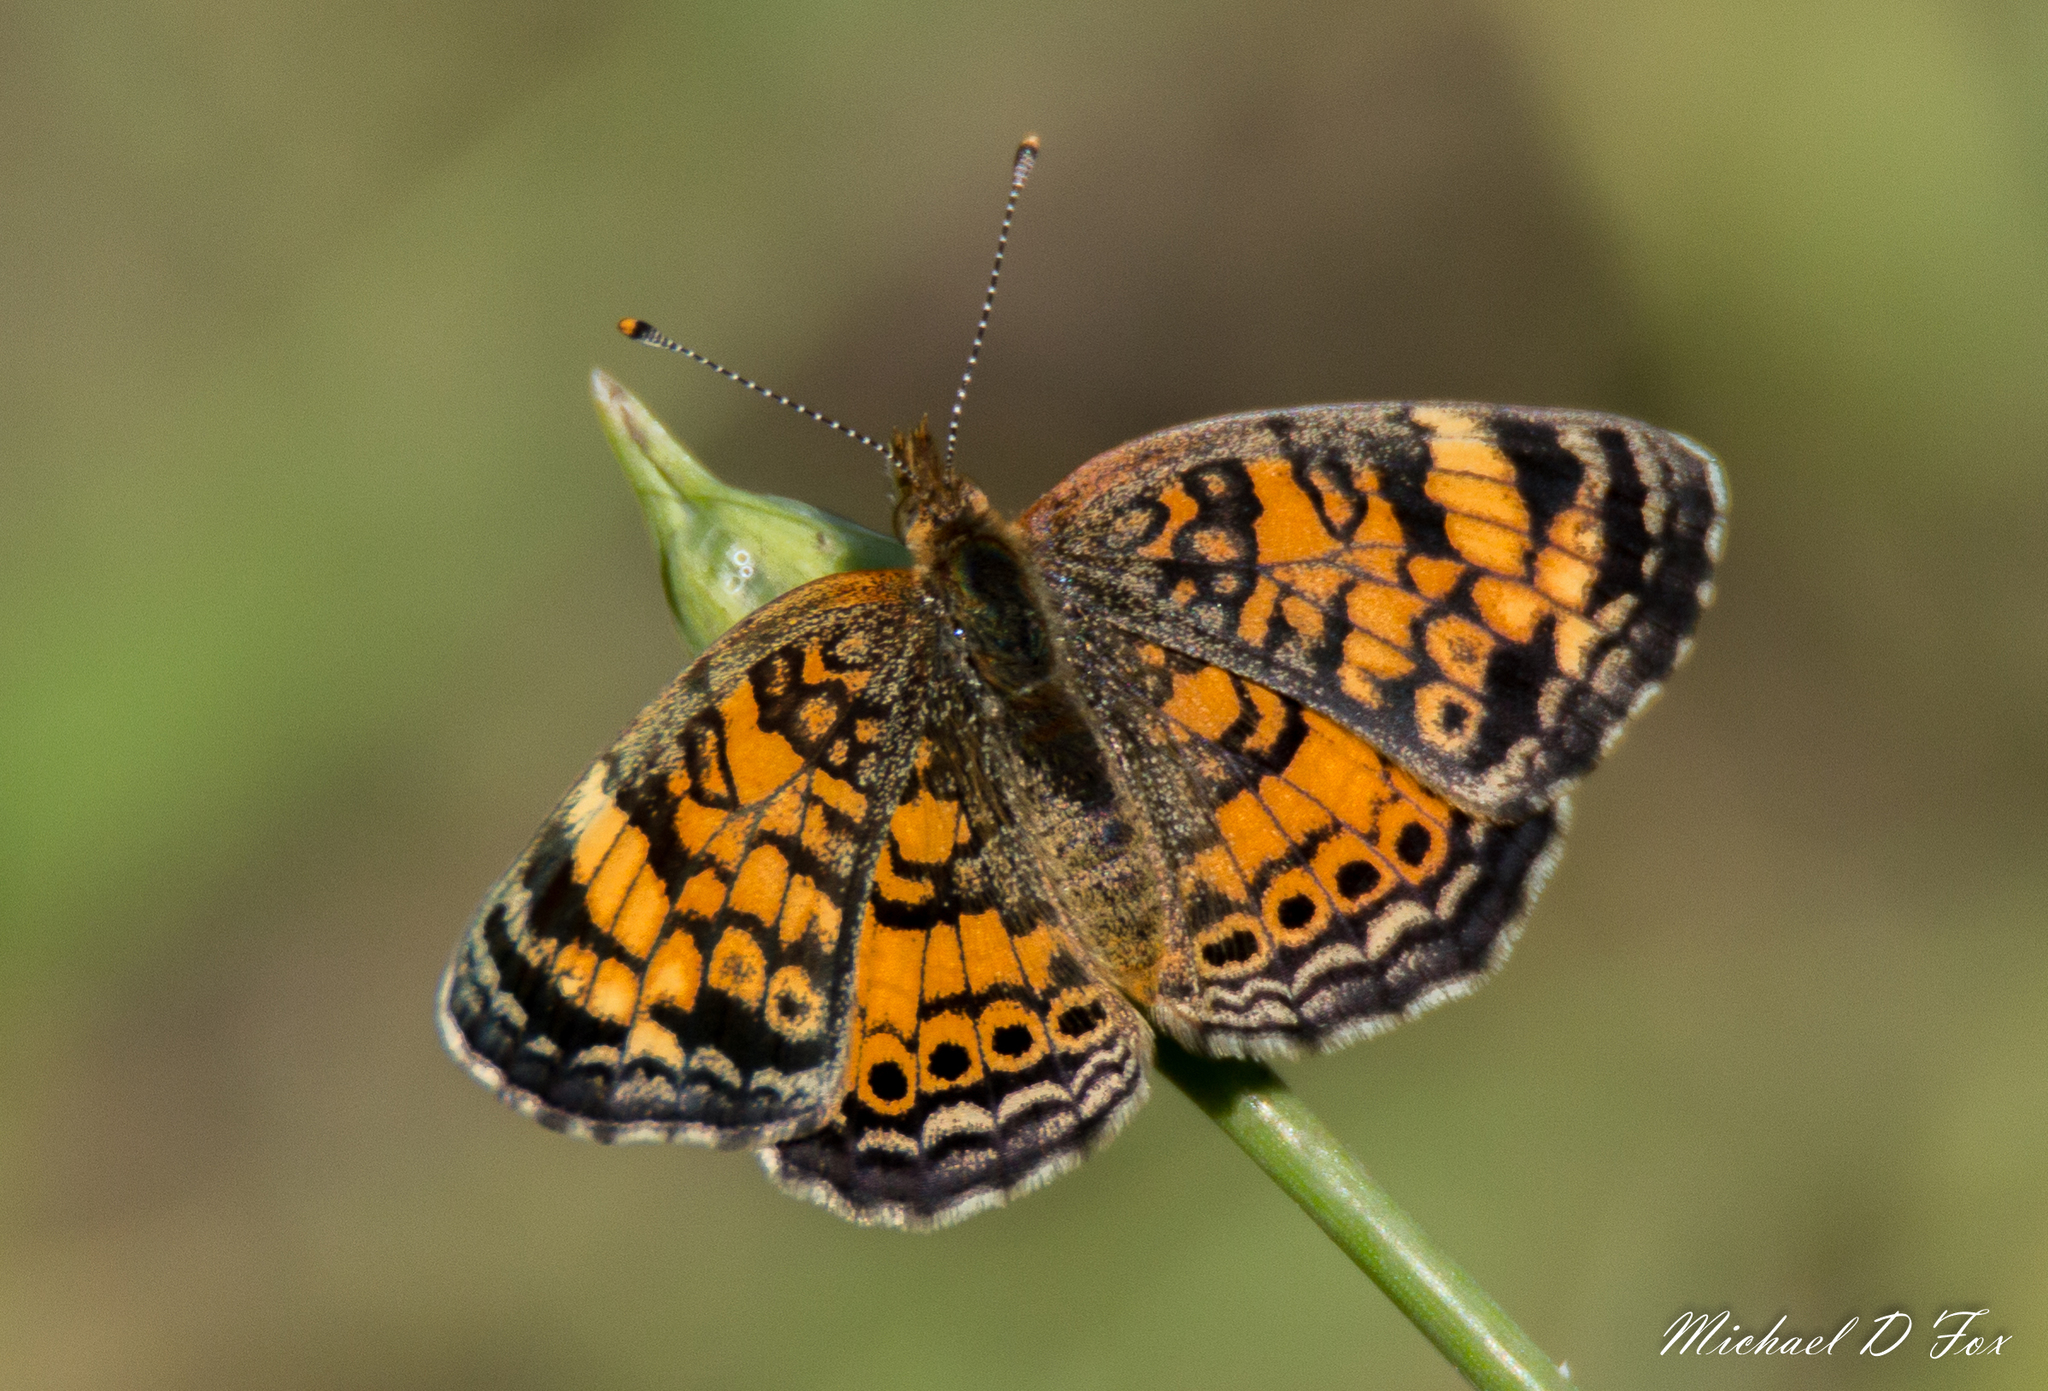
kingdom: Animalia
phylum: Arthropoda
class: Insecta
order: Lepidoptera
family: Nymphalidae
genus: Phyciodes
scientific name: Phyciodes tharos
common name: Pearl crescent
